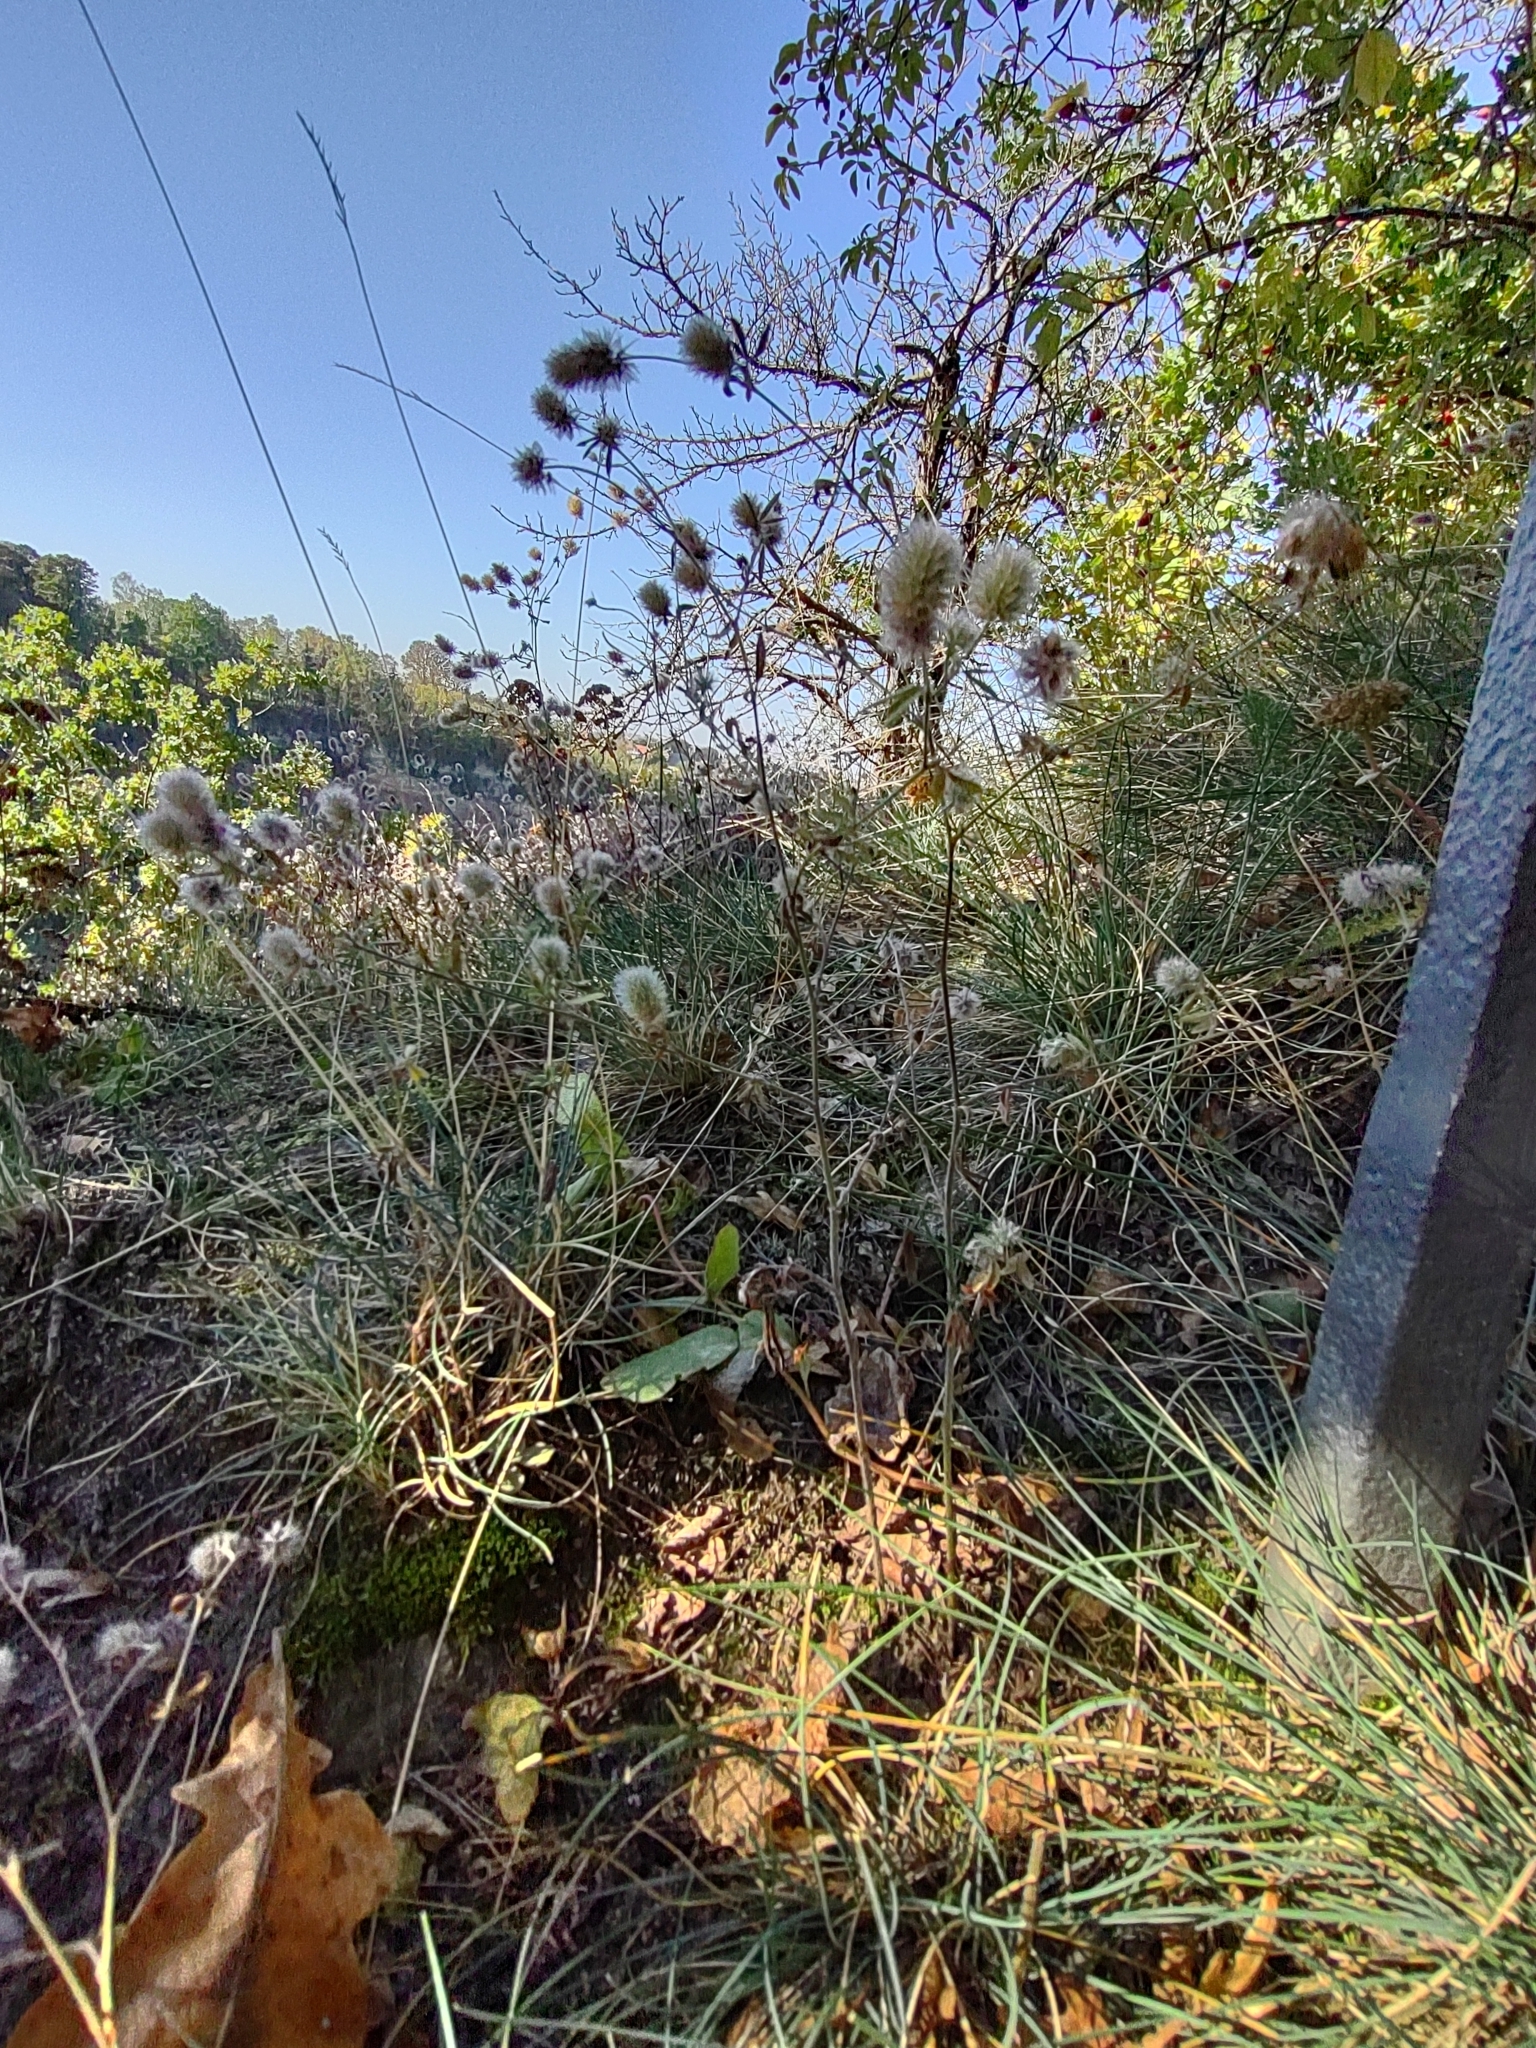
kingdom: Plantae
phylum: Tracheophyta
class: Magnoliopsida
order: Fabales
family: Fabaceae
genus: Trifolium
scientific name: Trifolium arvense
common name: Hare's-foot clover
